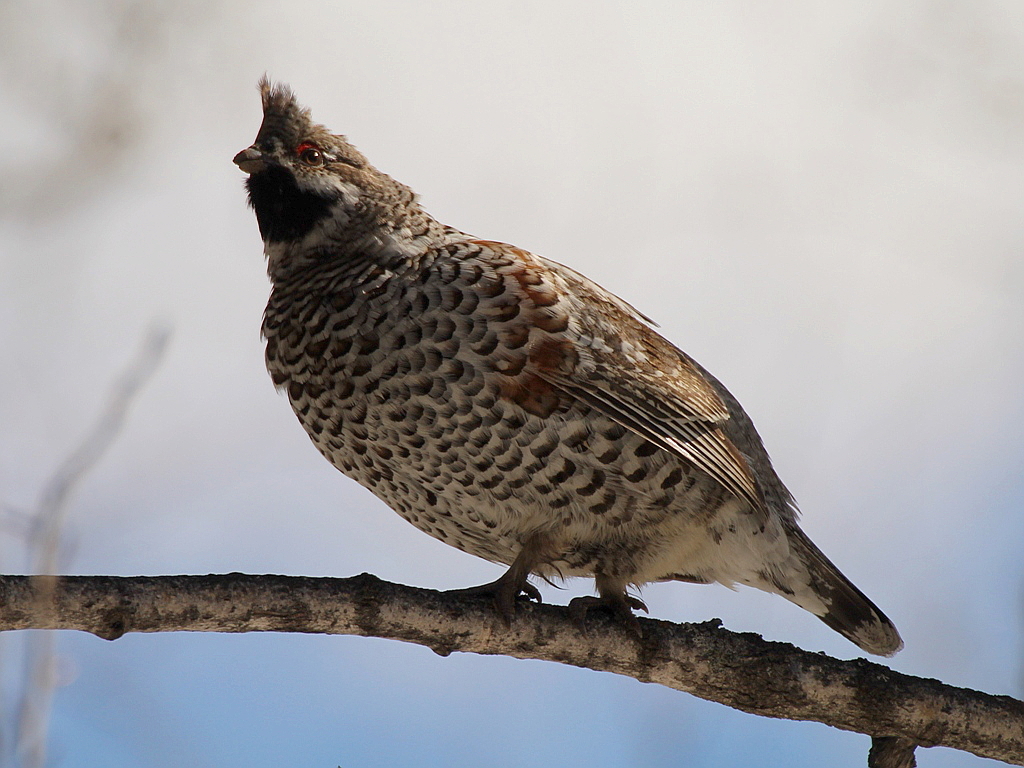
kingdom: Animalia
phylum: Chordata
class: Aves
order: Galliformes
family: Phasianidae
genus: Tetrastes
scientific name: Tetrastes bonasia
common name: Hazel grouse
